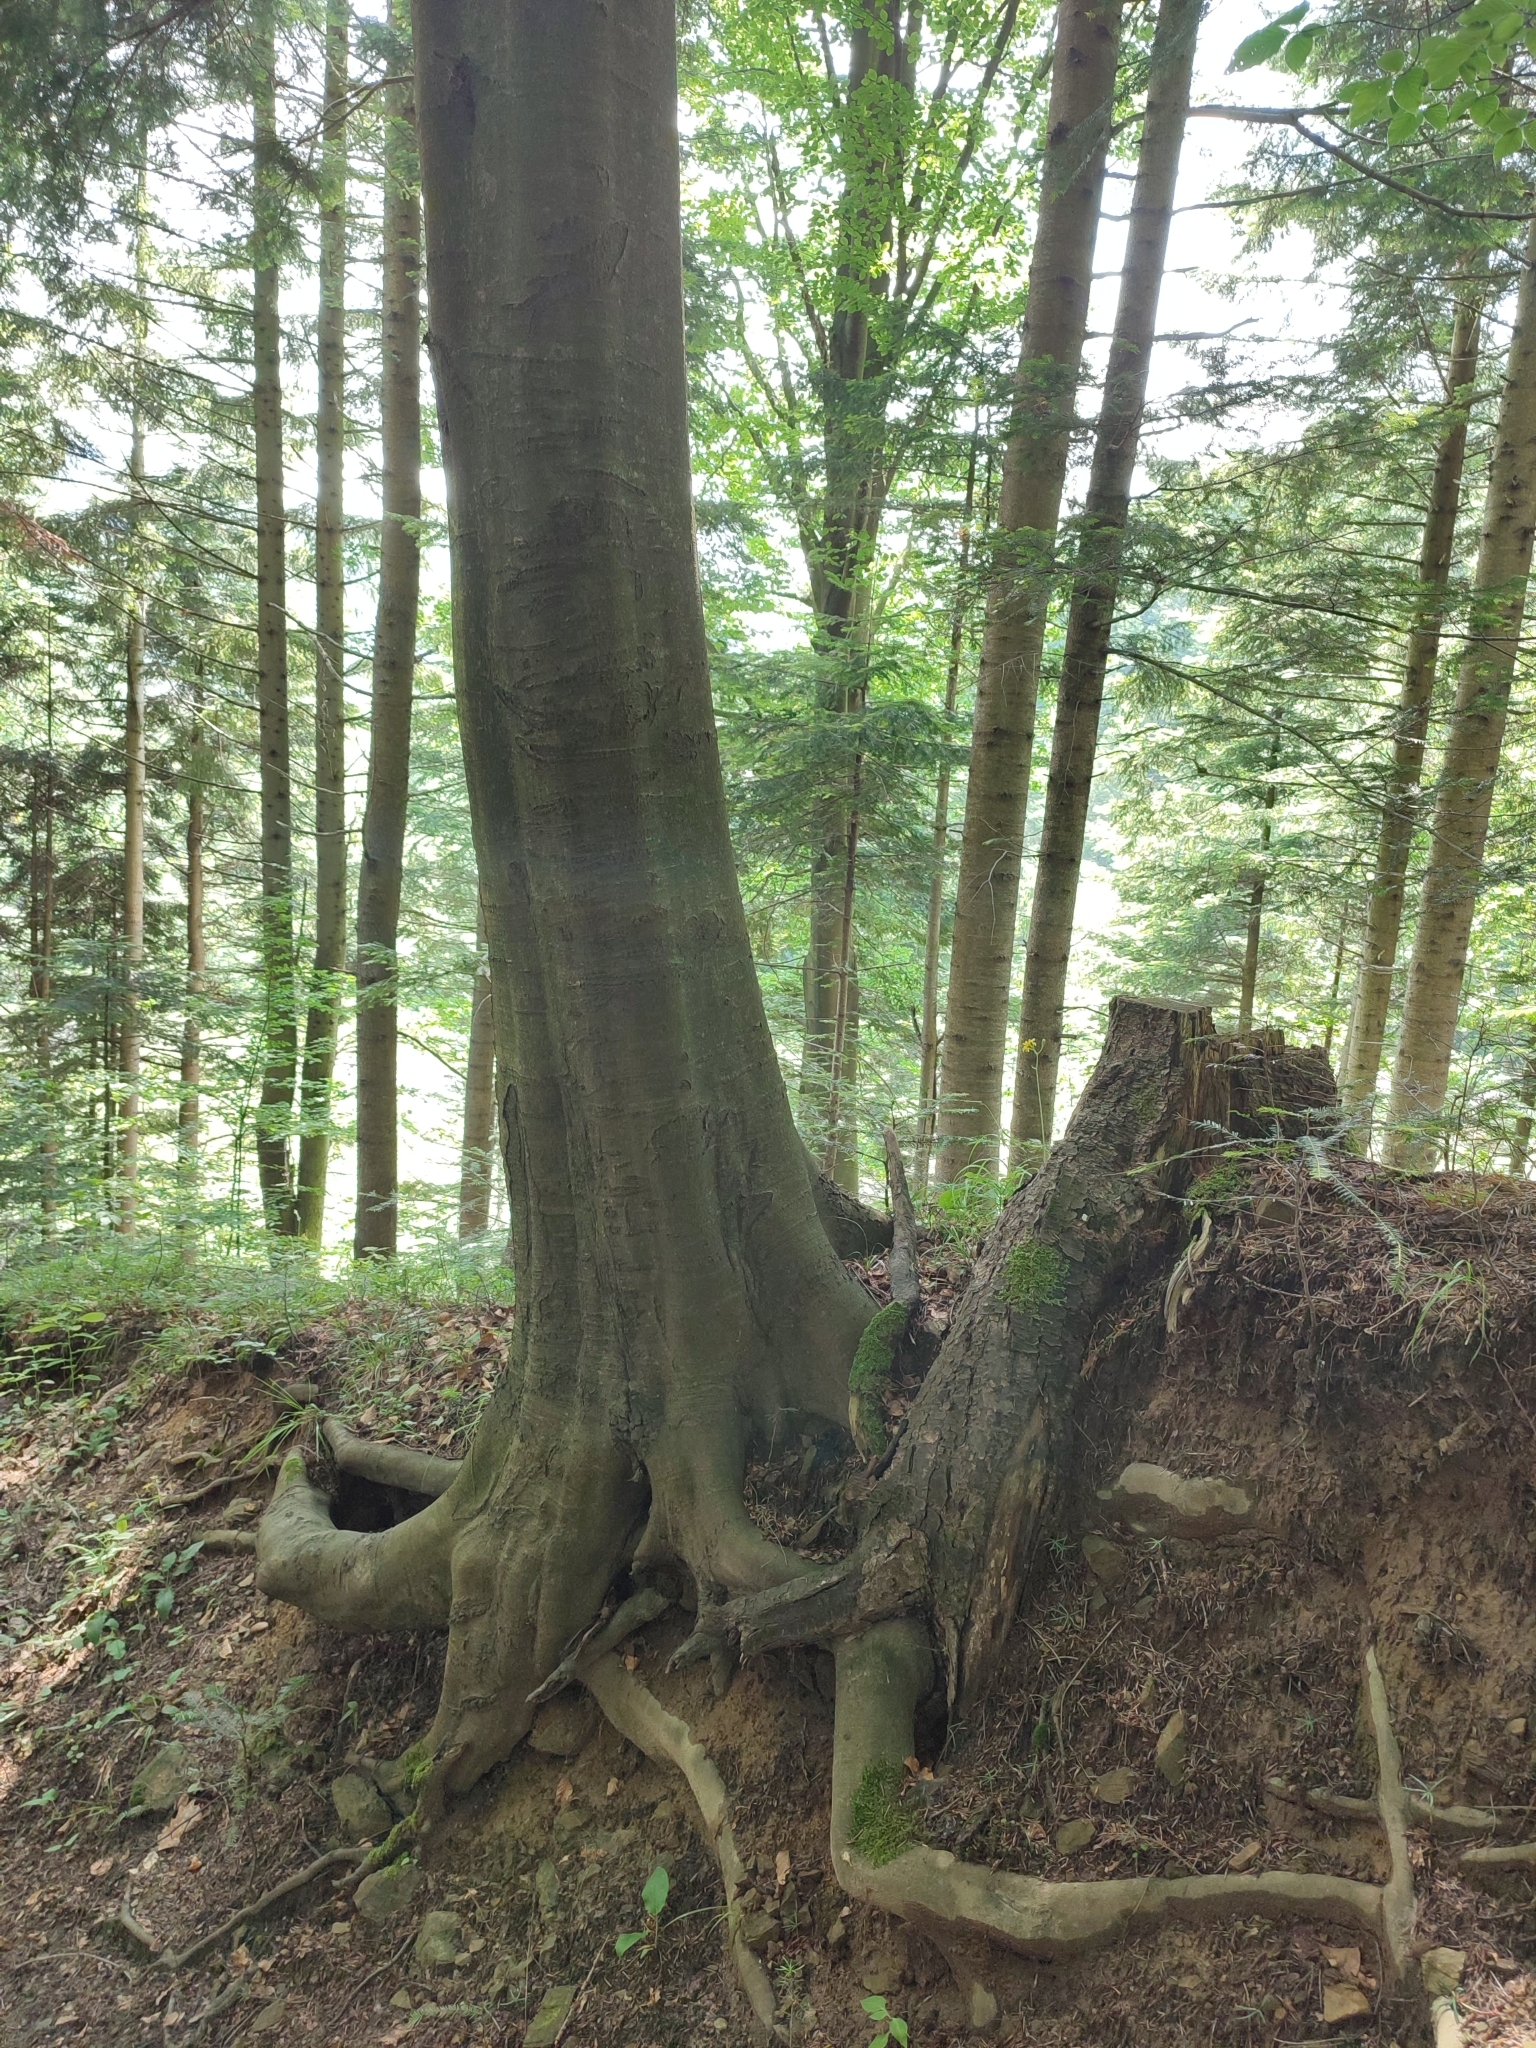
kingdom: Plantae
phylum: Tracheophyta
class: Magnoliopsida
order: Fagales
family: Fagaceae
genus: Fagus
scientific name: Fagus sylvatica
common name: Beech
